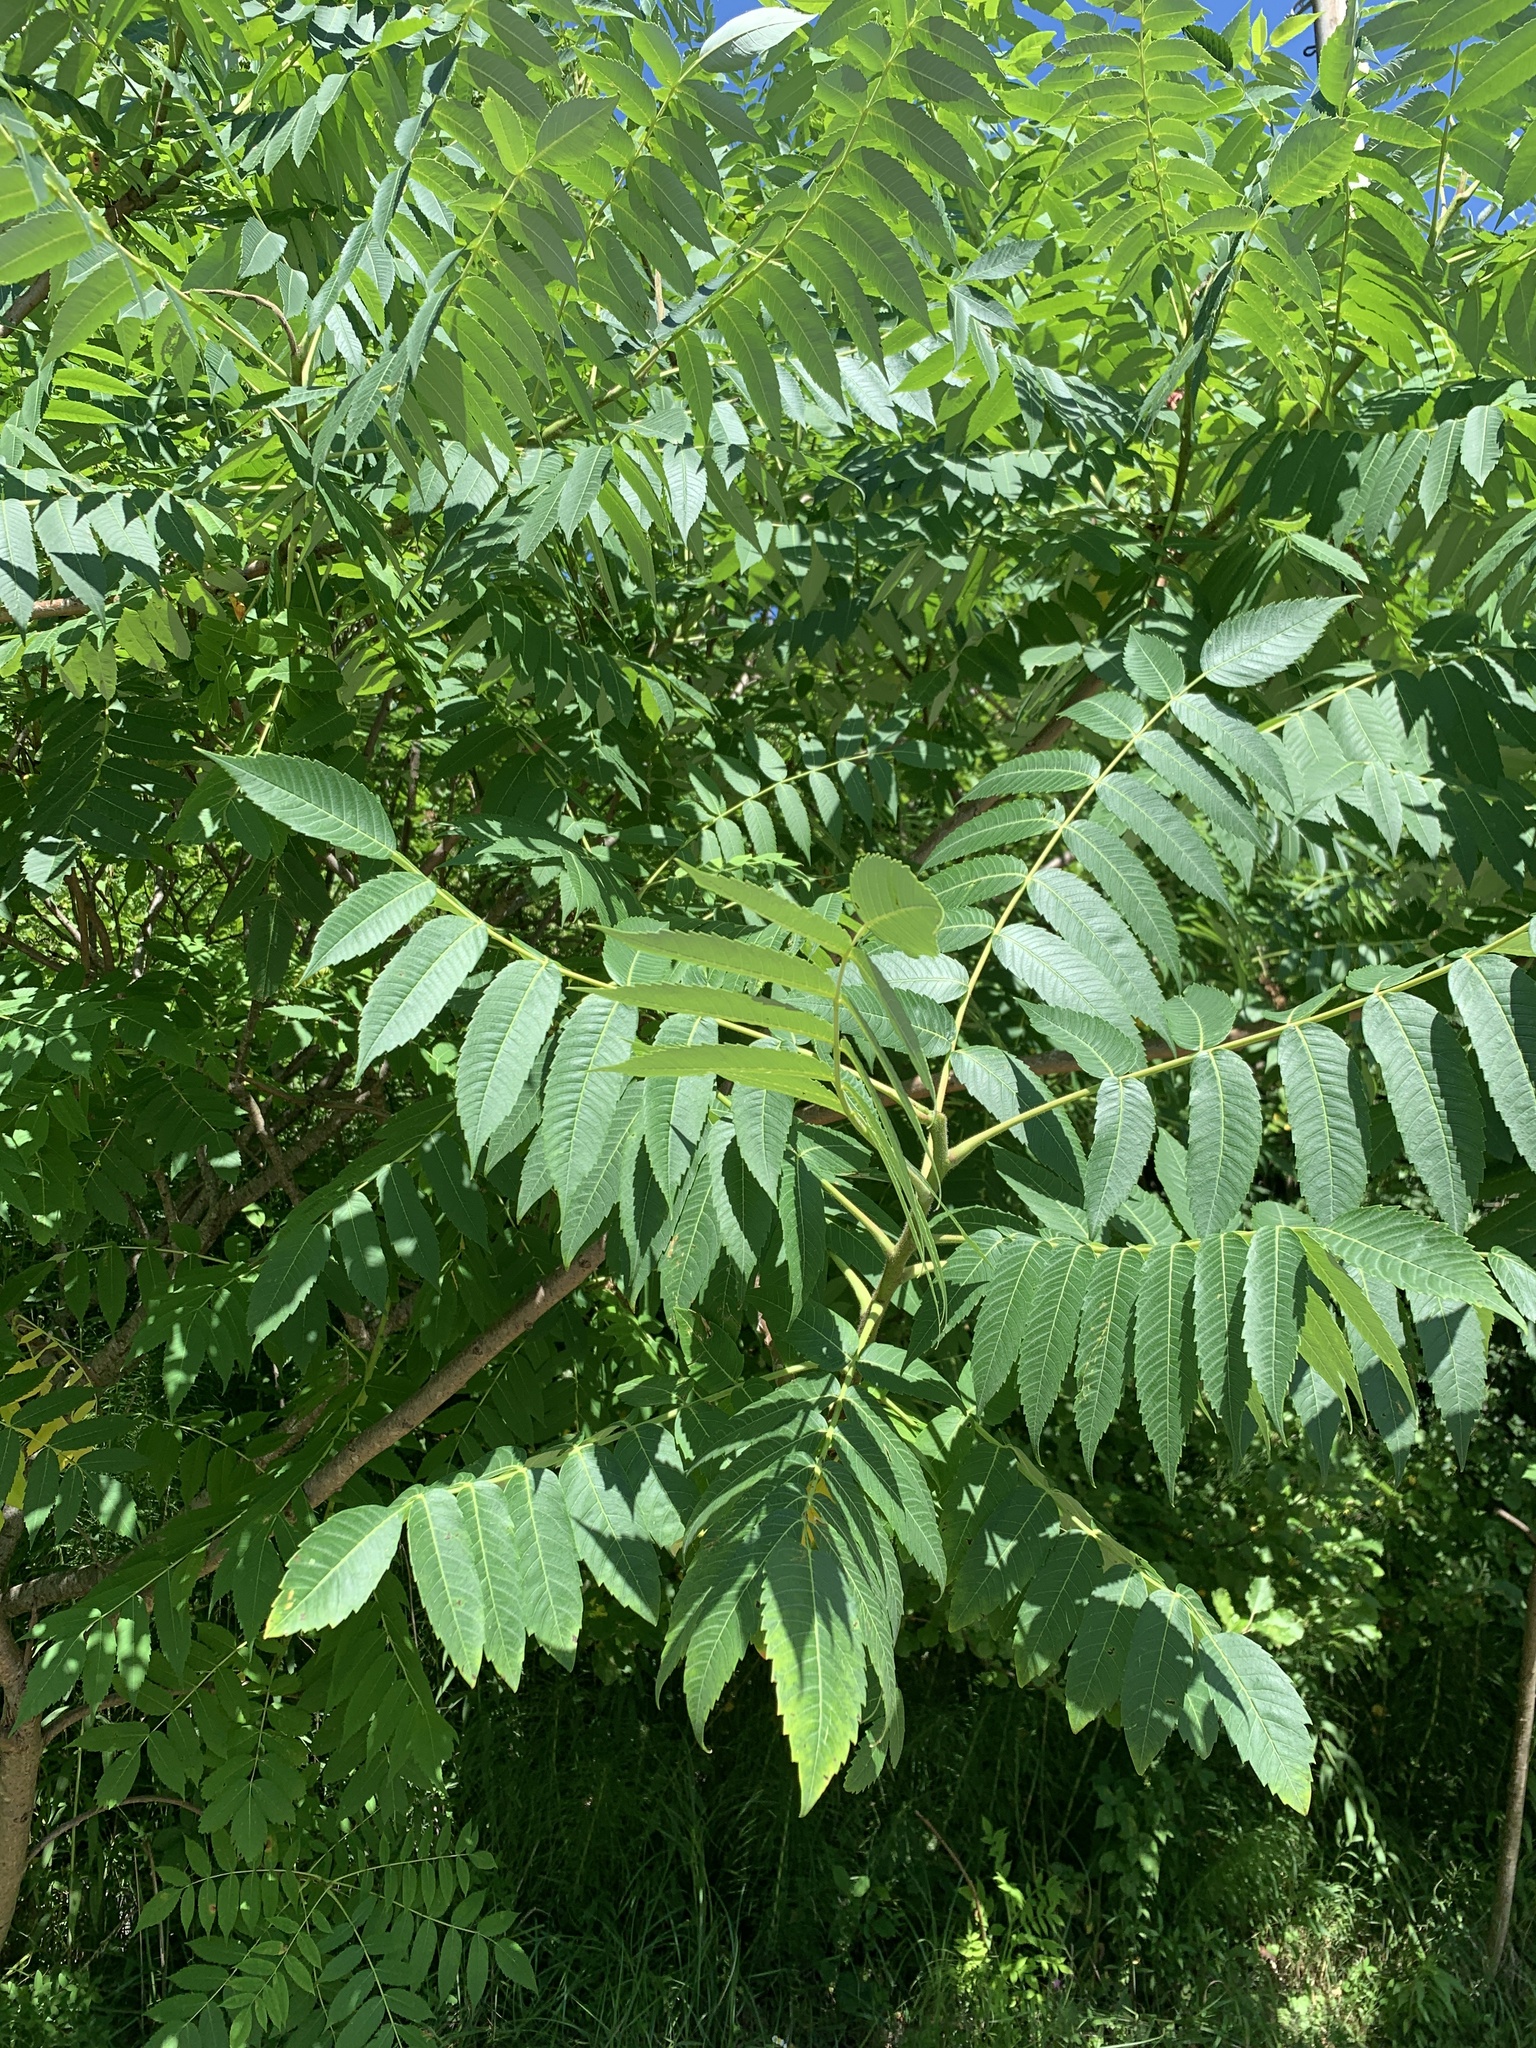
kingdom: Plantae
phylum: Tracheophyta
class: Magnoliopsida
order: Sapindales
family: Anacardiaceae
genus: Rhus
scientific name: Rhus typhina
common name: Staghorn sumac
